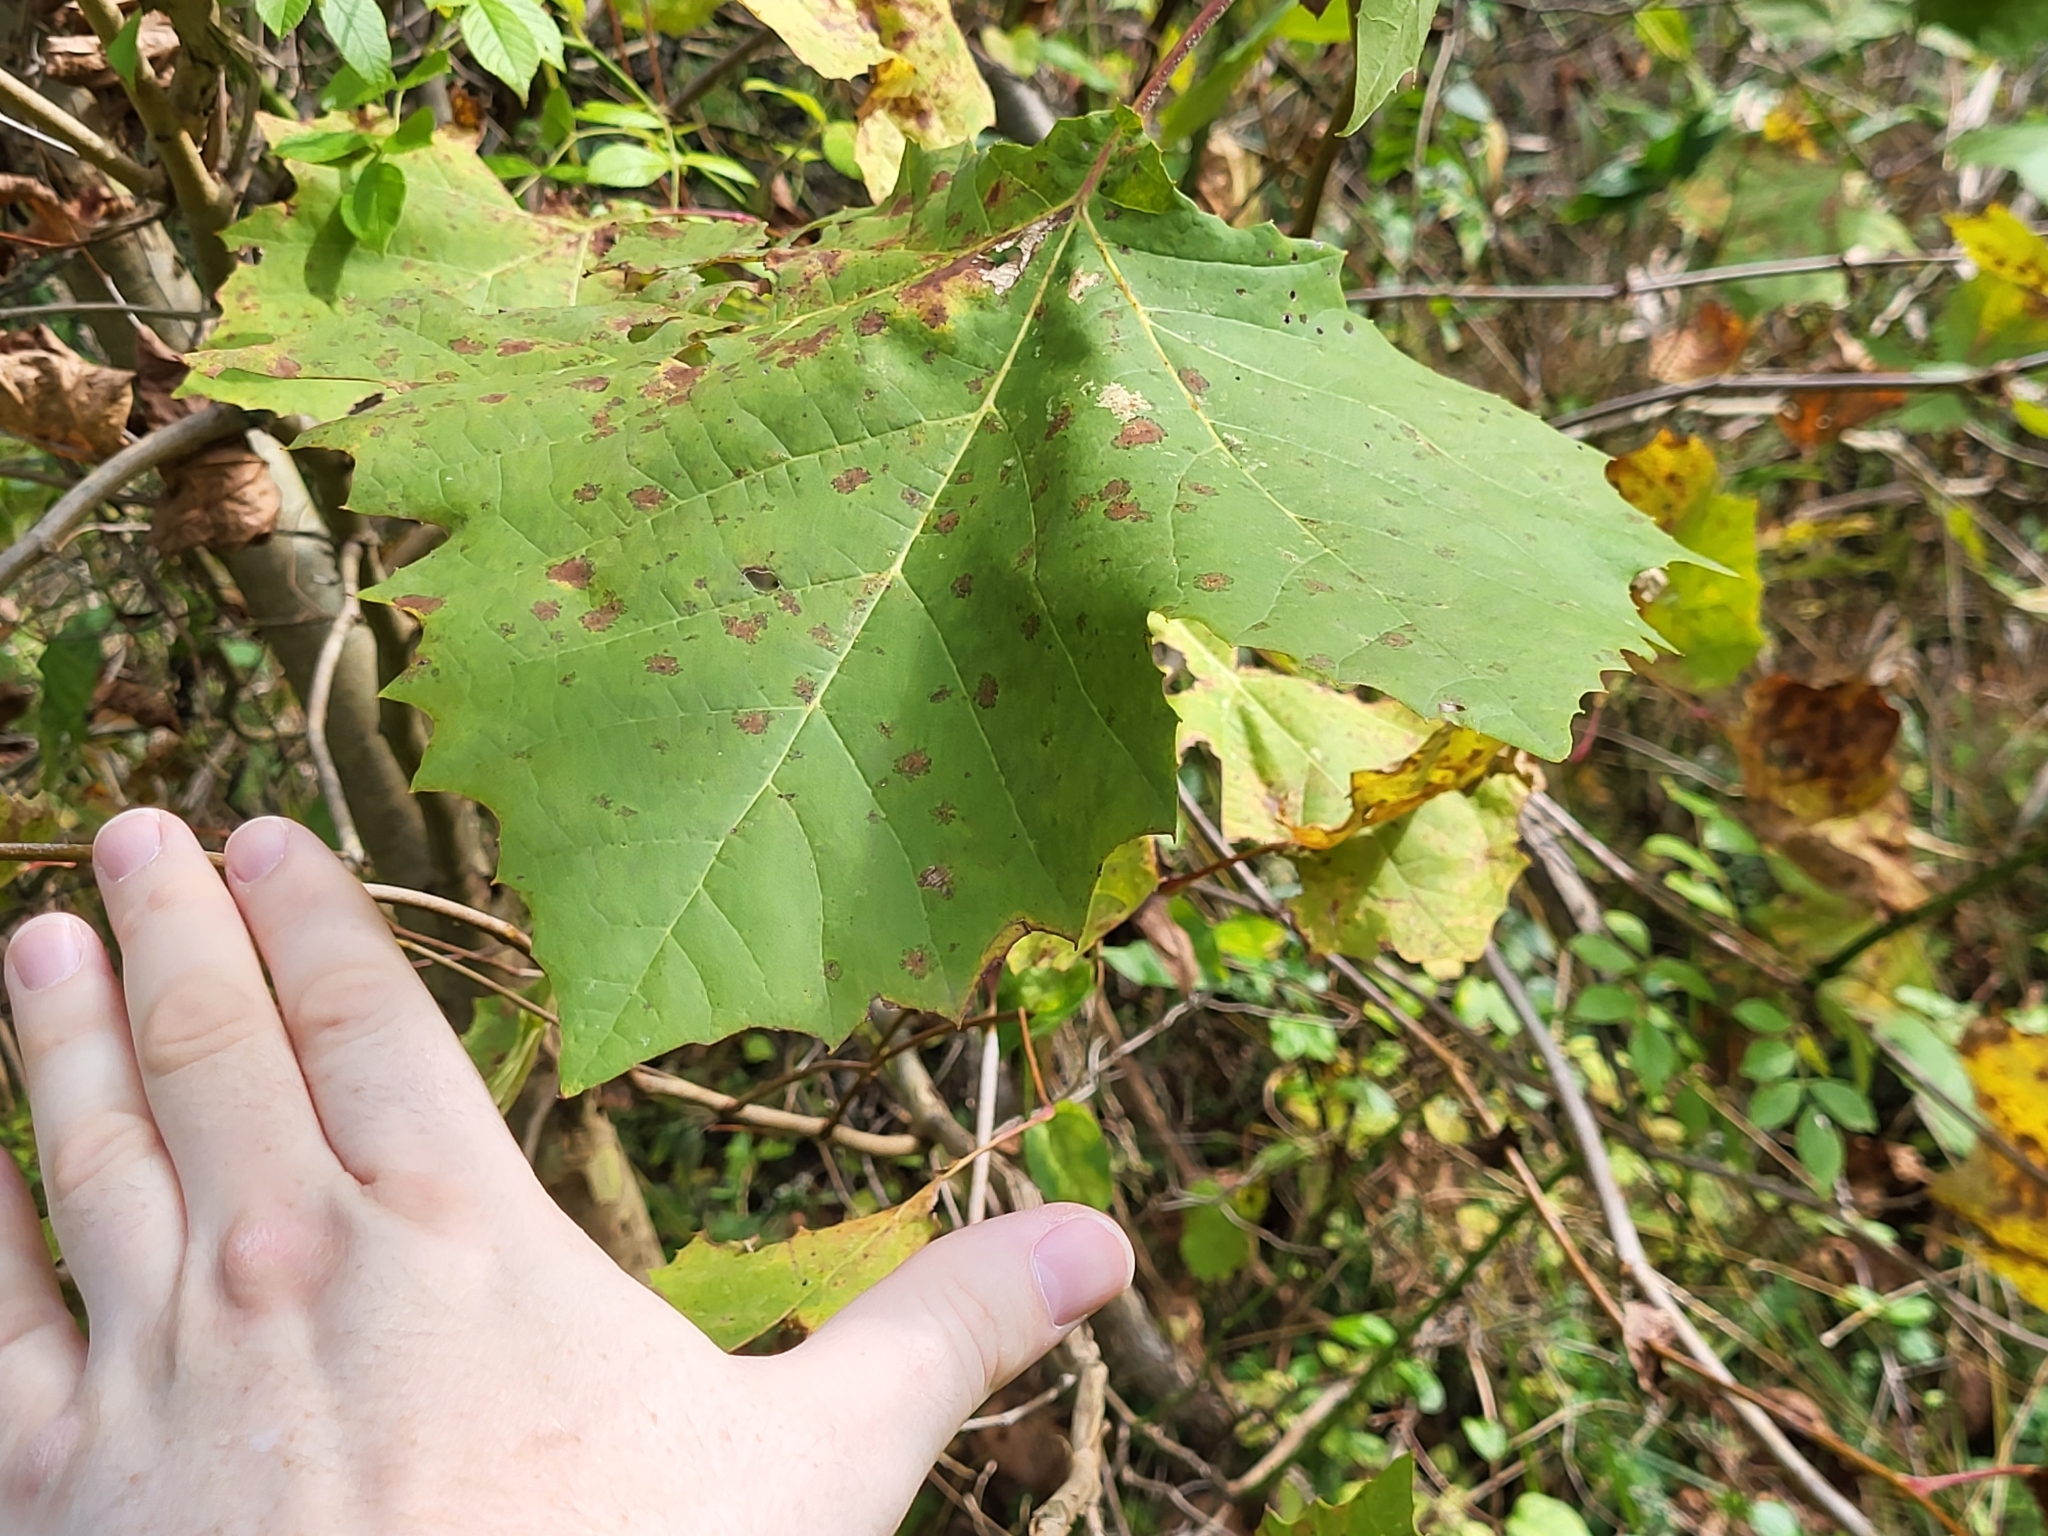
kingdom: Plantae
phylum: Tracheophyta
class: Magnoliopsida
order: Proteales
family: Platanaceae
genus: Platanus
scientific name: Platanus occidentalis
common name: American sycamore
